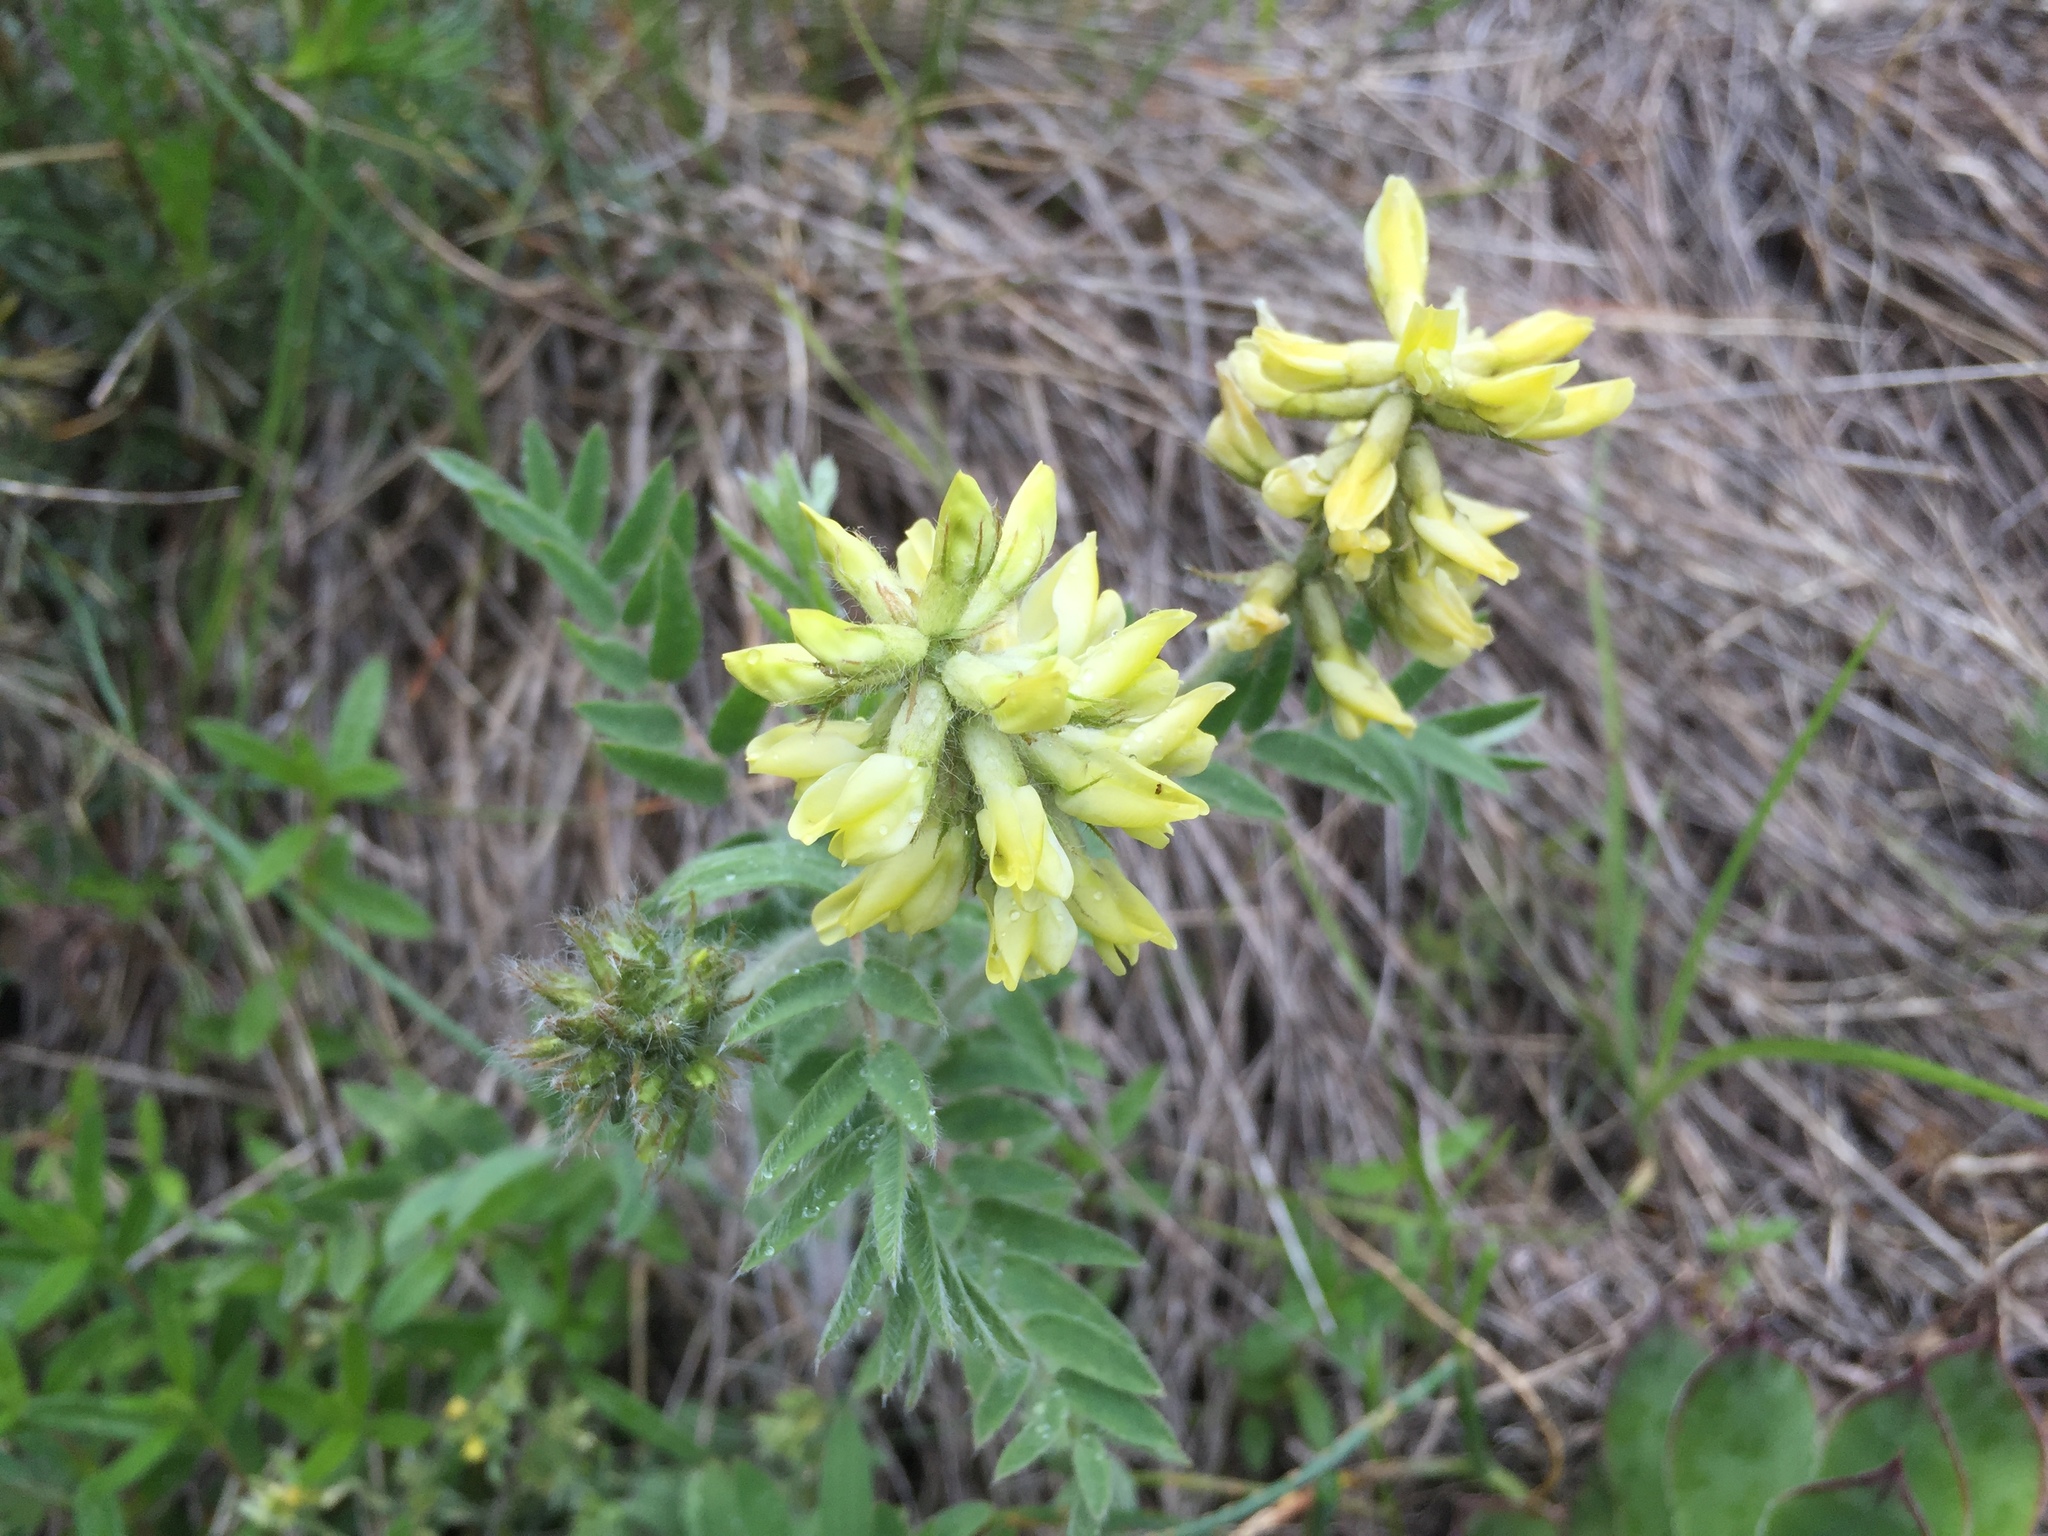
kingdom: Plantae
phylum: Tracheophyta
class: Magnoliopsida
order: Fabales
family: Fabaceae
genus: Oxytropis
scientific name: Oxytropis pilosa
